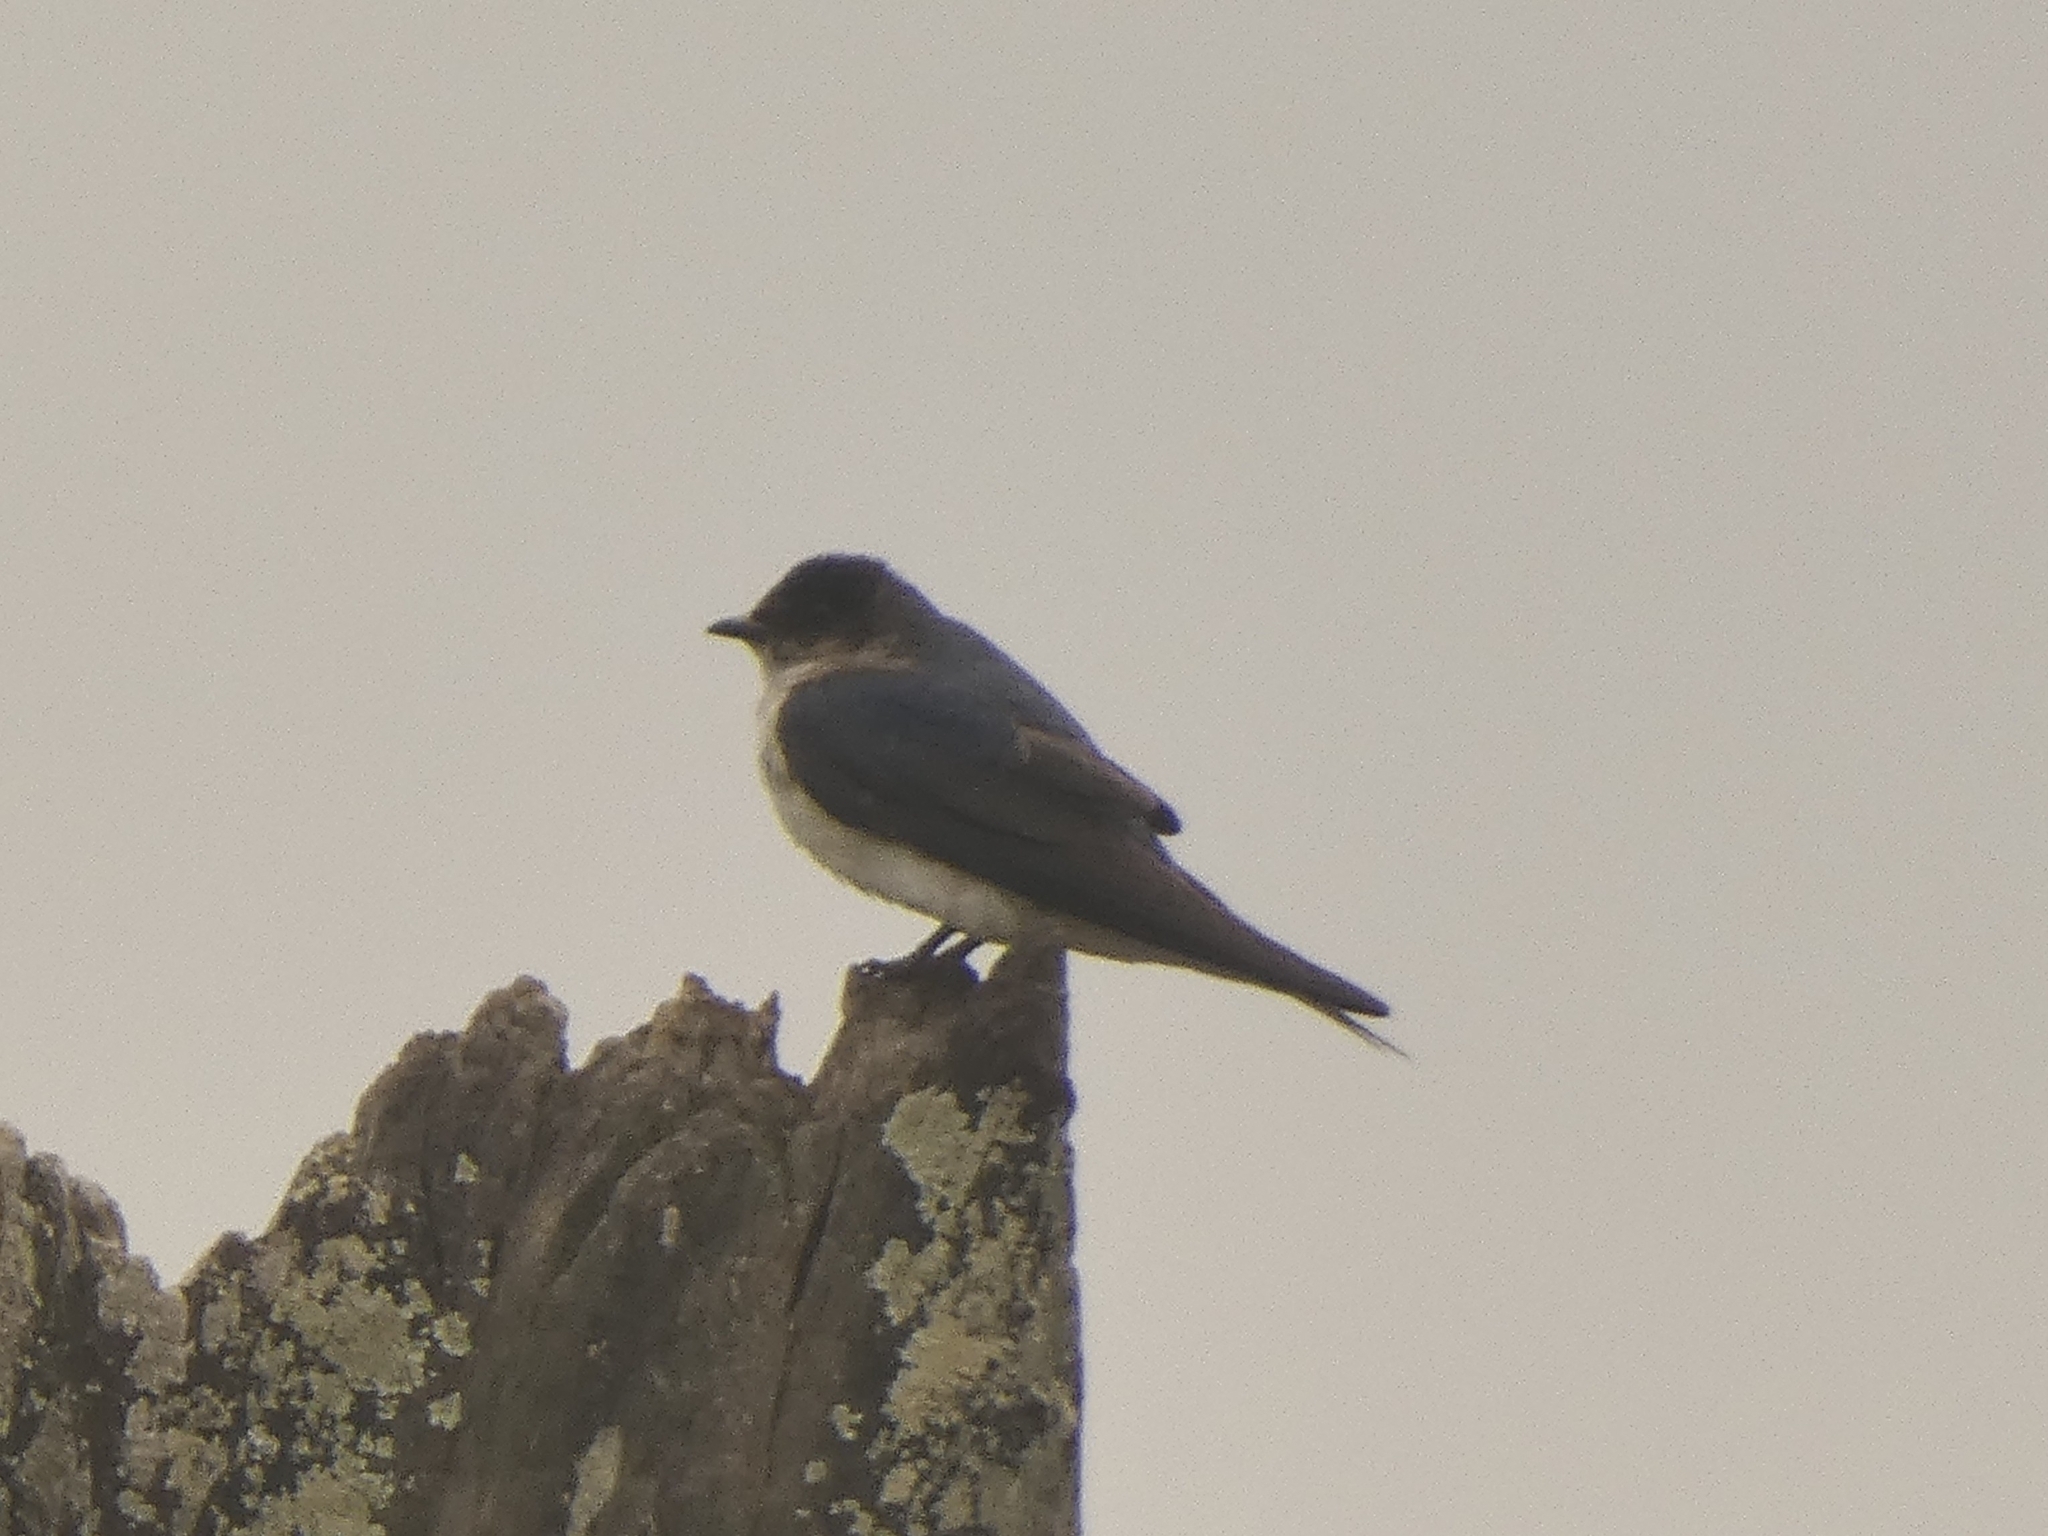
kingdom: Animalia
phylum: Chordata
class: Aves
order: Passeriformes
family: Hirundinidae
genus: Progne
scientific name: Progne chalybea
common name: Grey-breasted martin
